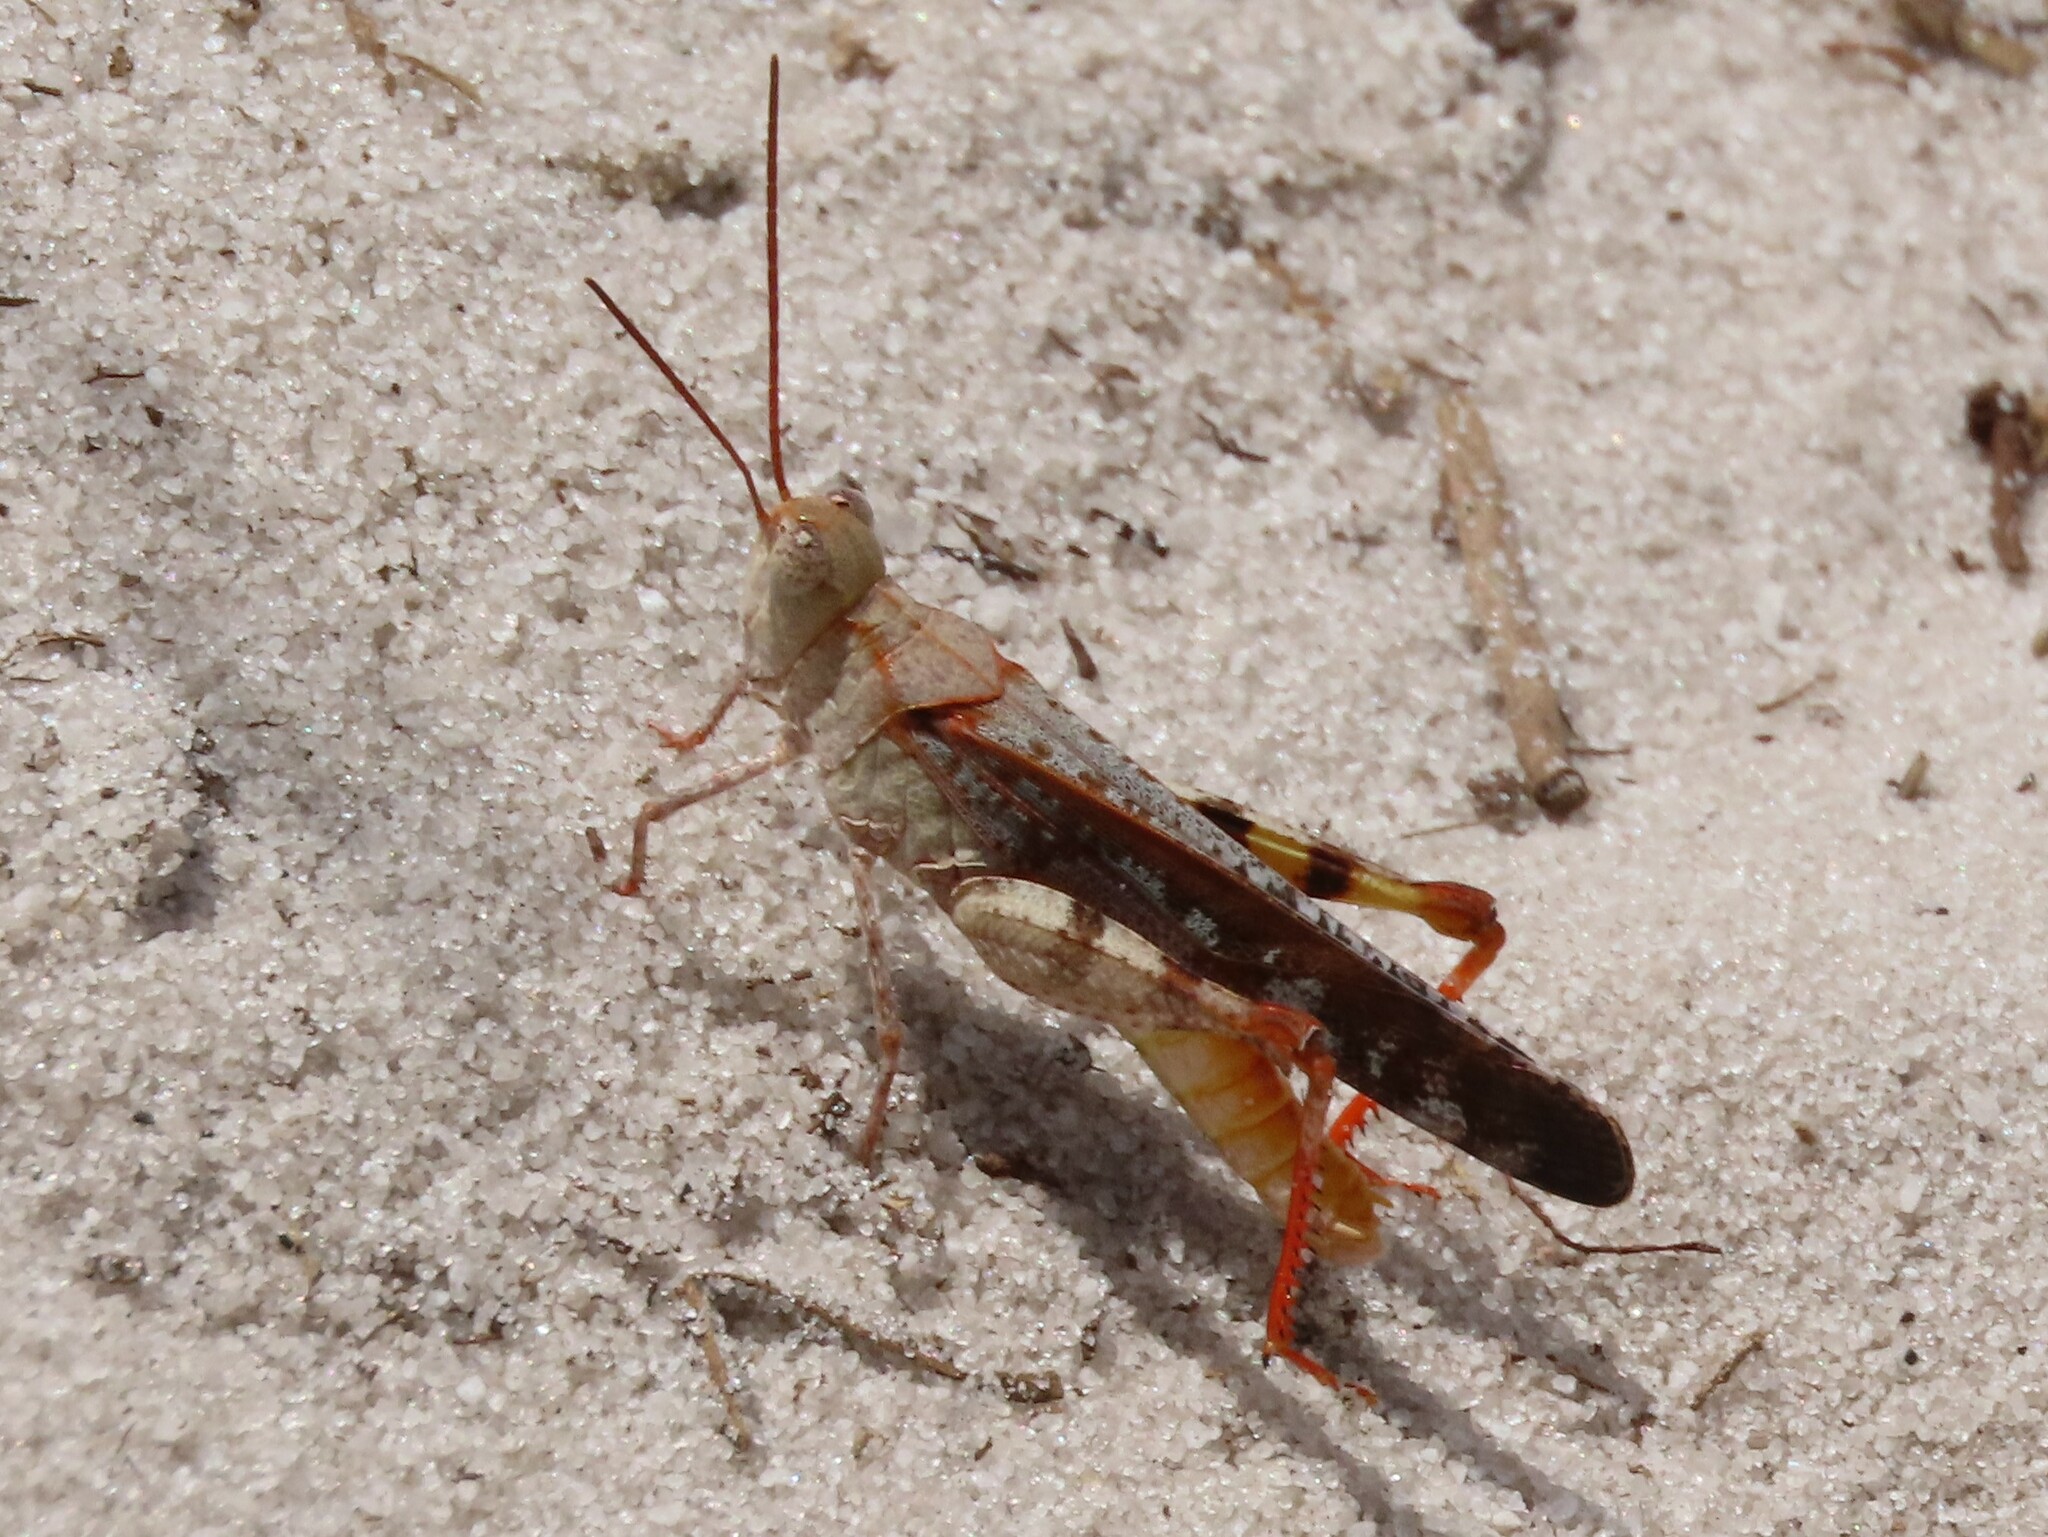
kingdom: Animalia
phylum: Arthropoda
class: Insecta
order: Orthoptera
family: Acrididae
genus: Spharagemon
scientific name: Spharagemon marmoratum
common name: Marbled grasshopper
